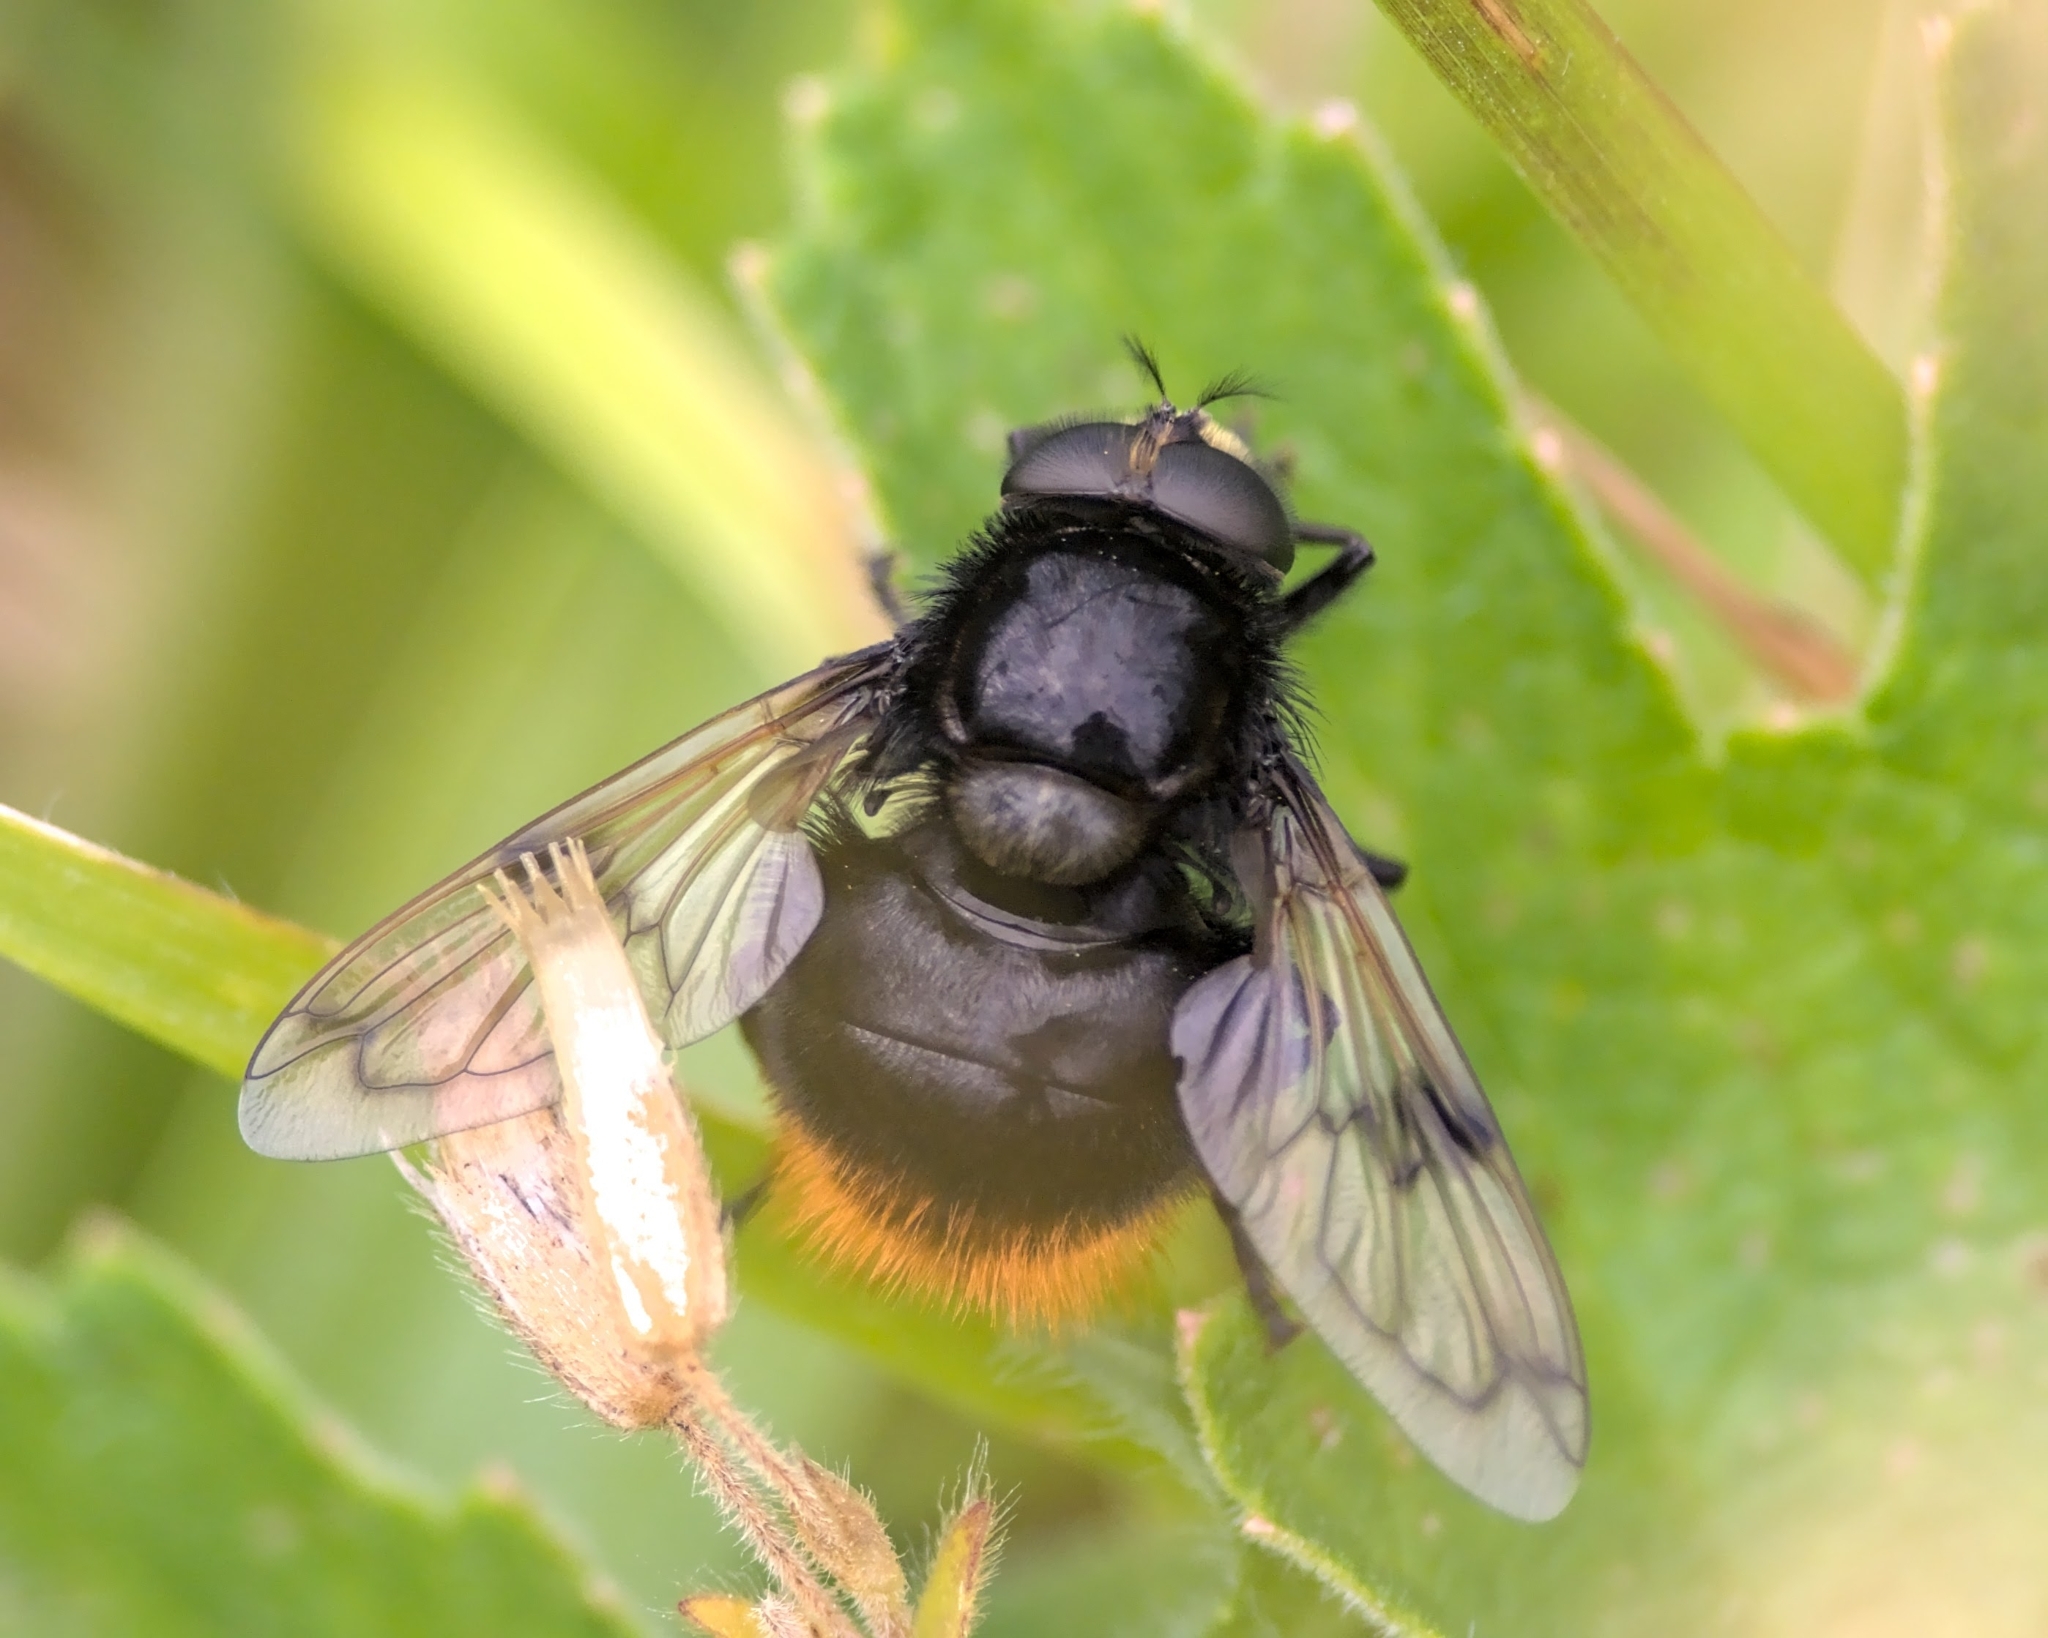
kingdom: Animalia
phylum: Arthropoda
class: Insecta
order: Diptera
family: Syrphidae
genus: Volucella
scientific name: Volucella bombylans
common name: Bumble bee hover fly
